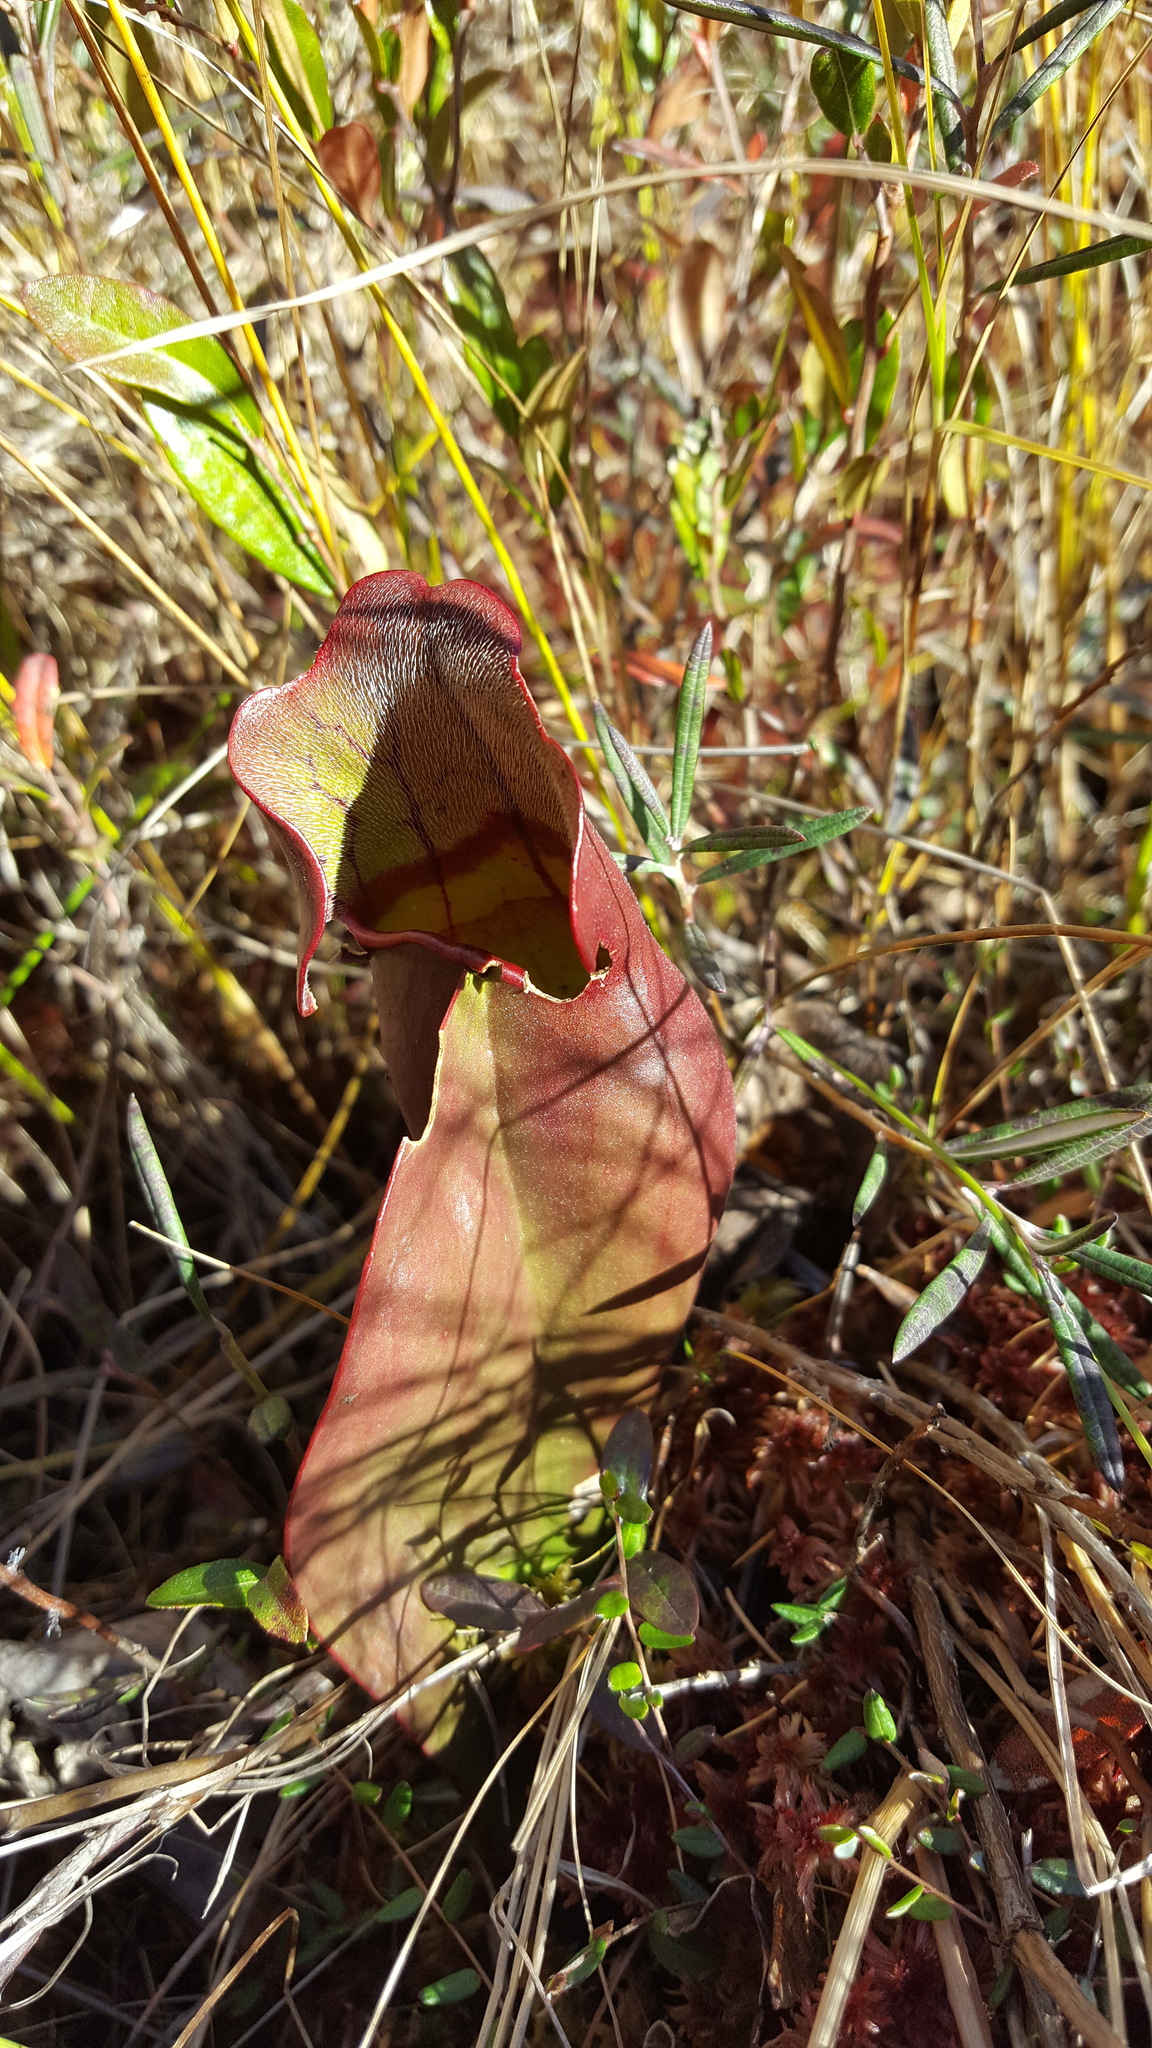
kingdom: Plantae
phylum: Tracheophyta
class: Magnoliopsida
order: Ericales
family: Sarraceniaceae
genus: Sarracenia
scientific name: Sarracenia purpurea
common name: Pitcherplant
